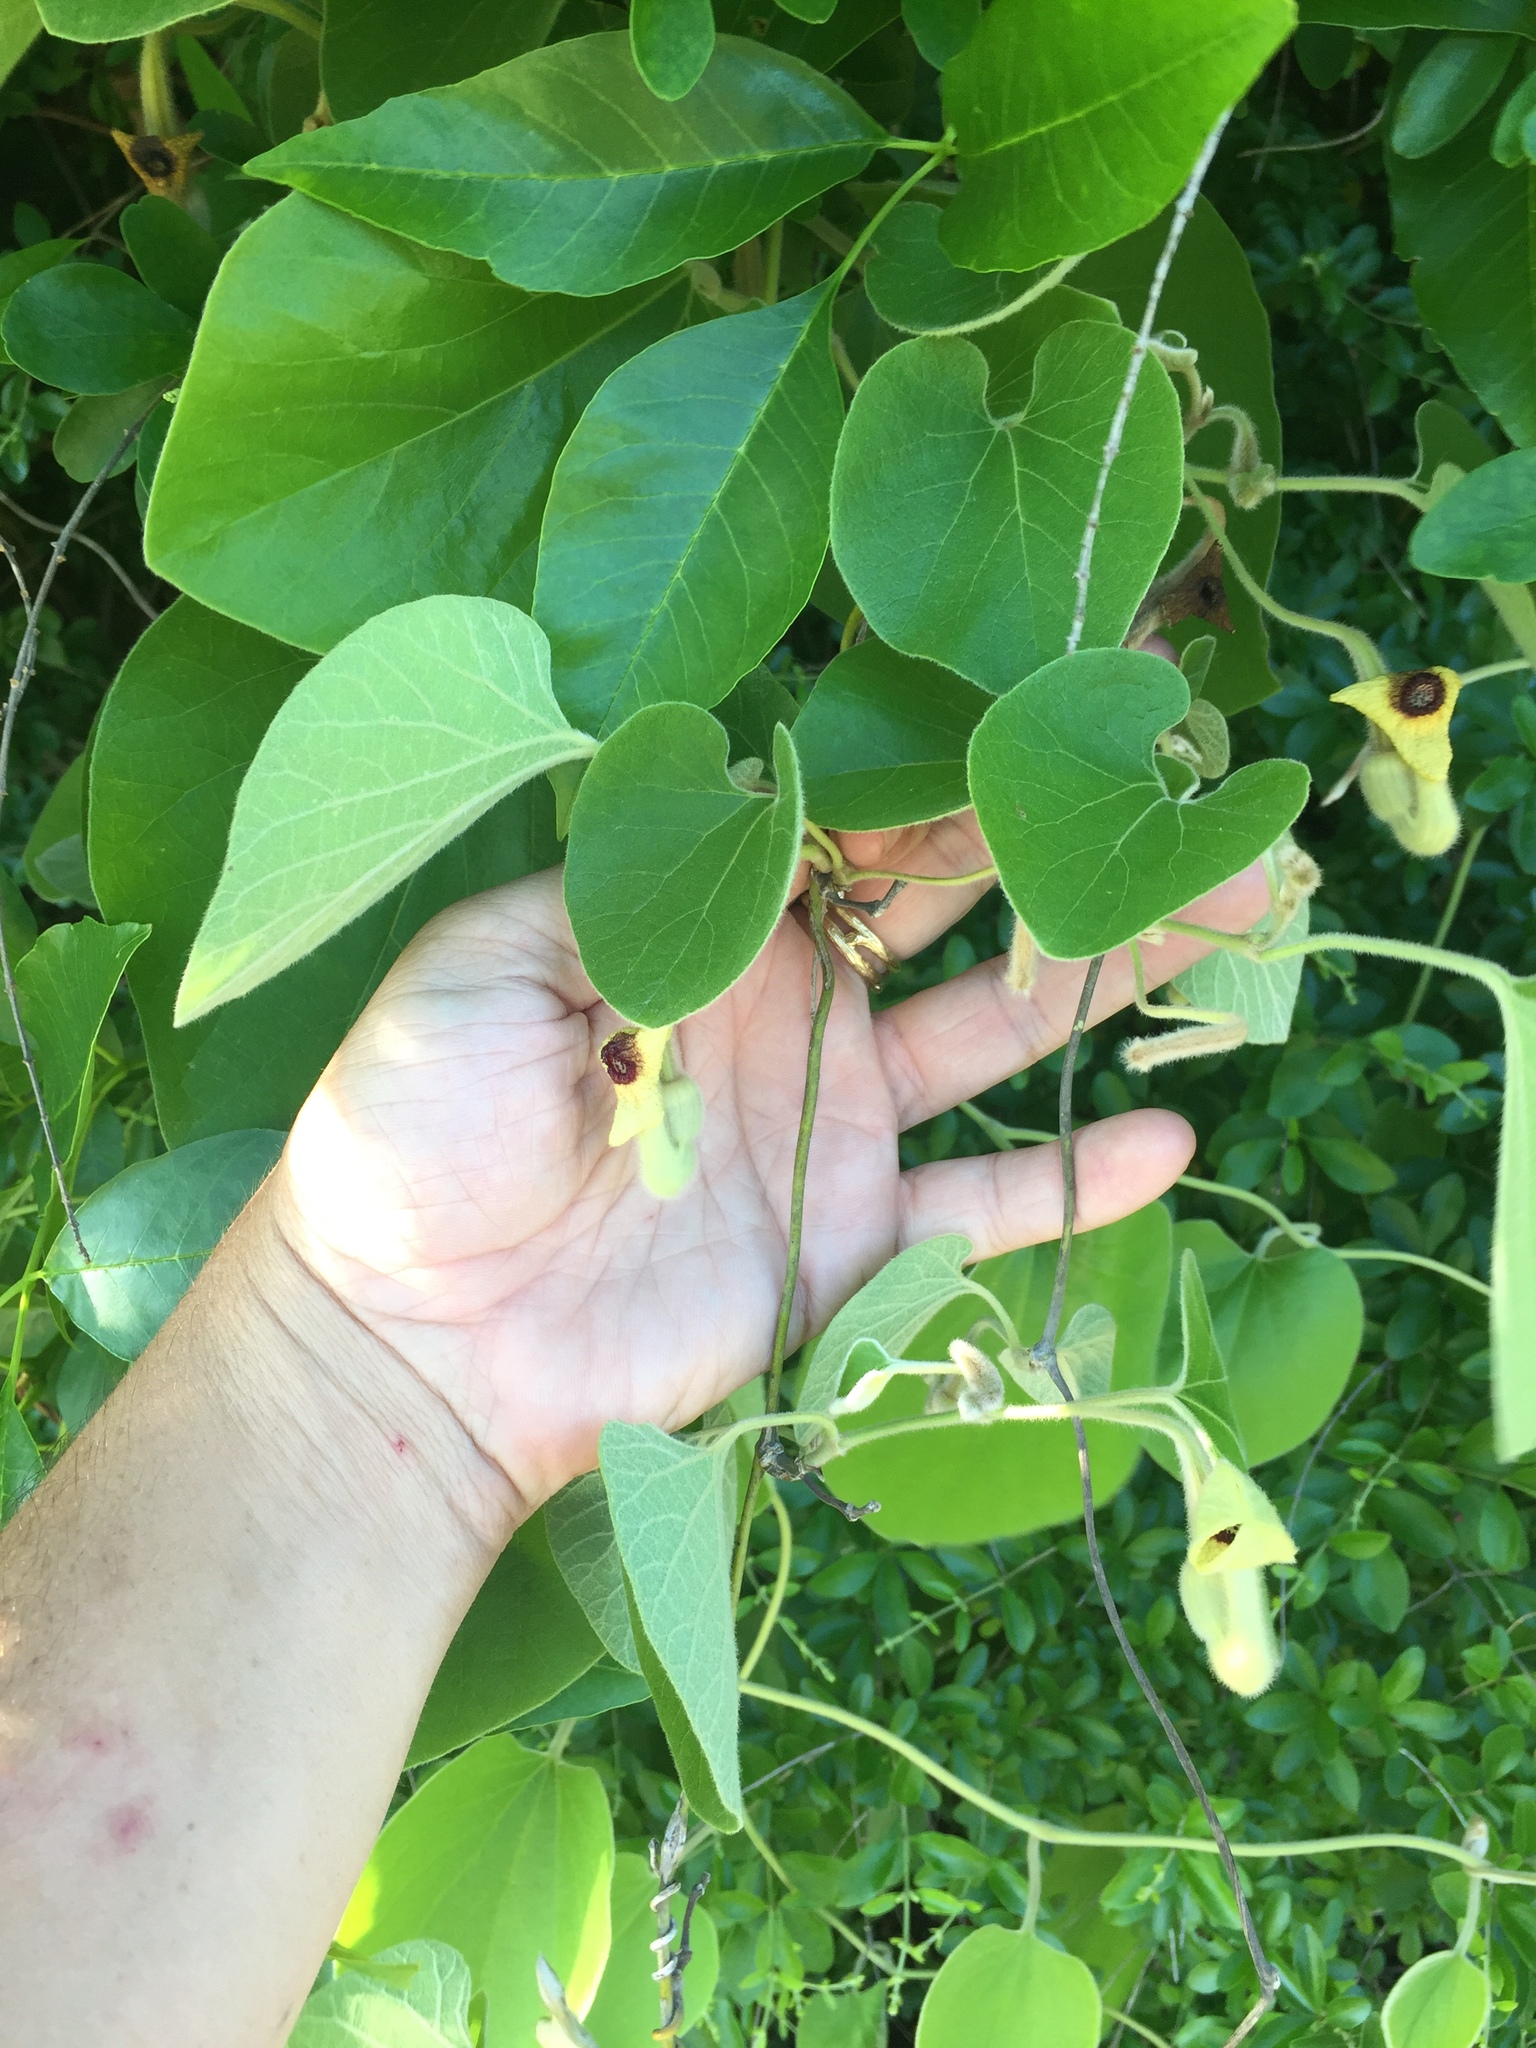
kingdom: Plantae
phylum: Tracheophyta
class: Magnoliopsida
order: Piperales
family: Aristolochiaceae
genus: Isotrema
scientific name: Isotrema tomentosum
